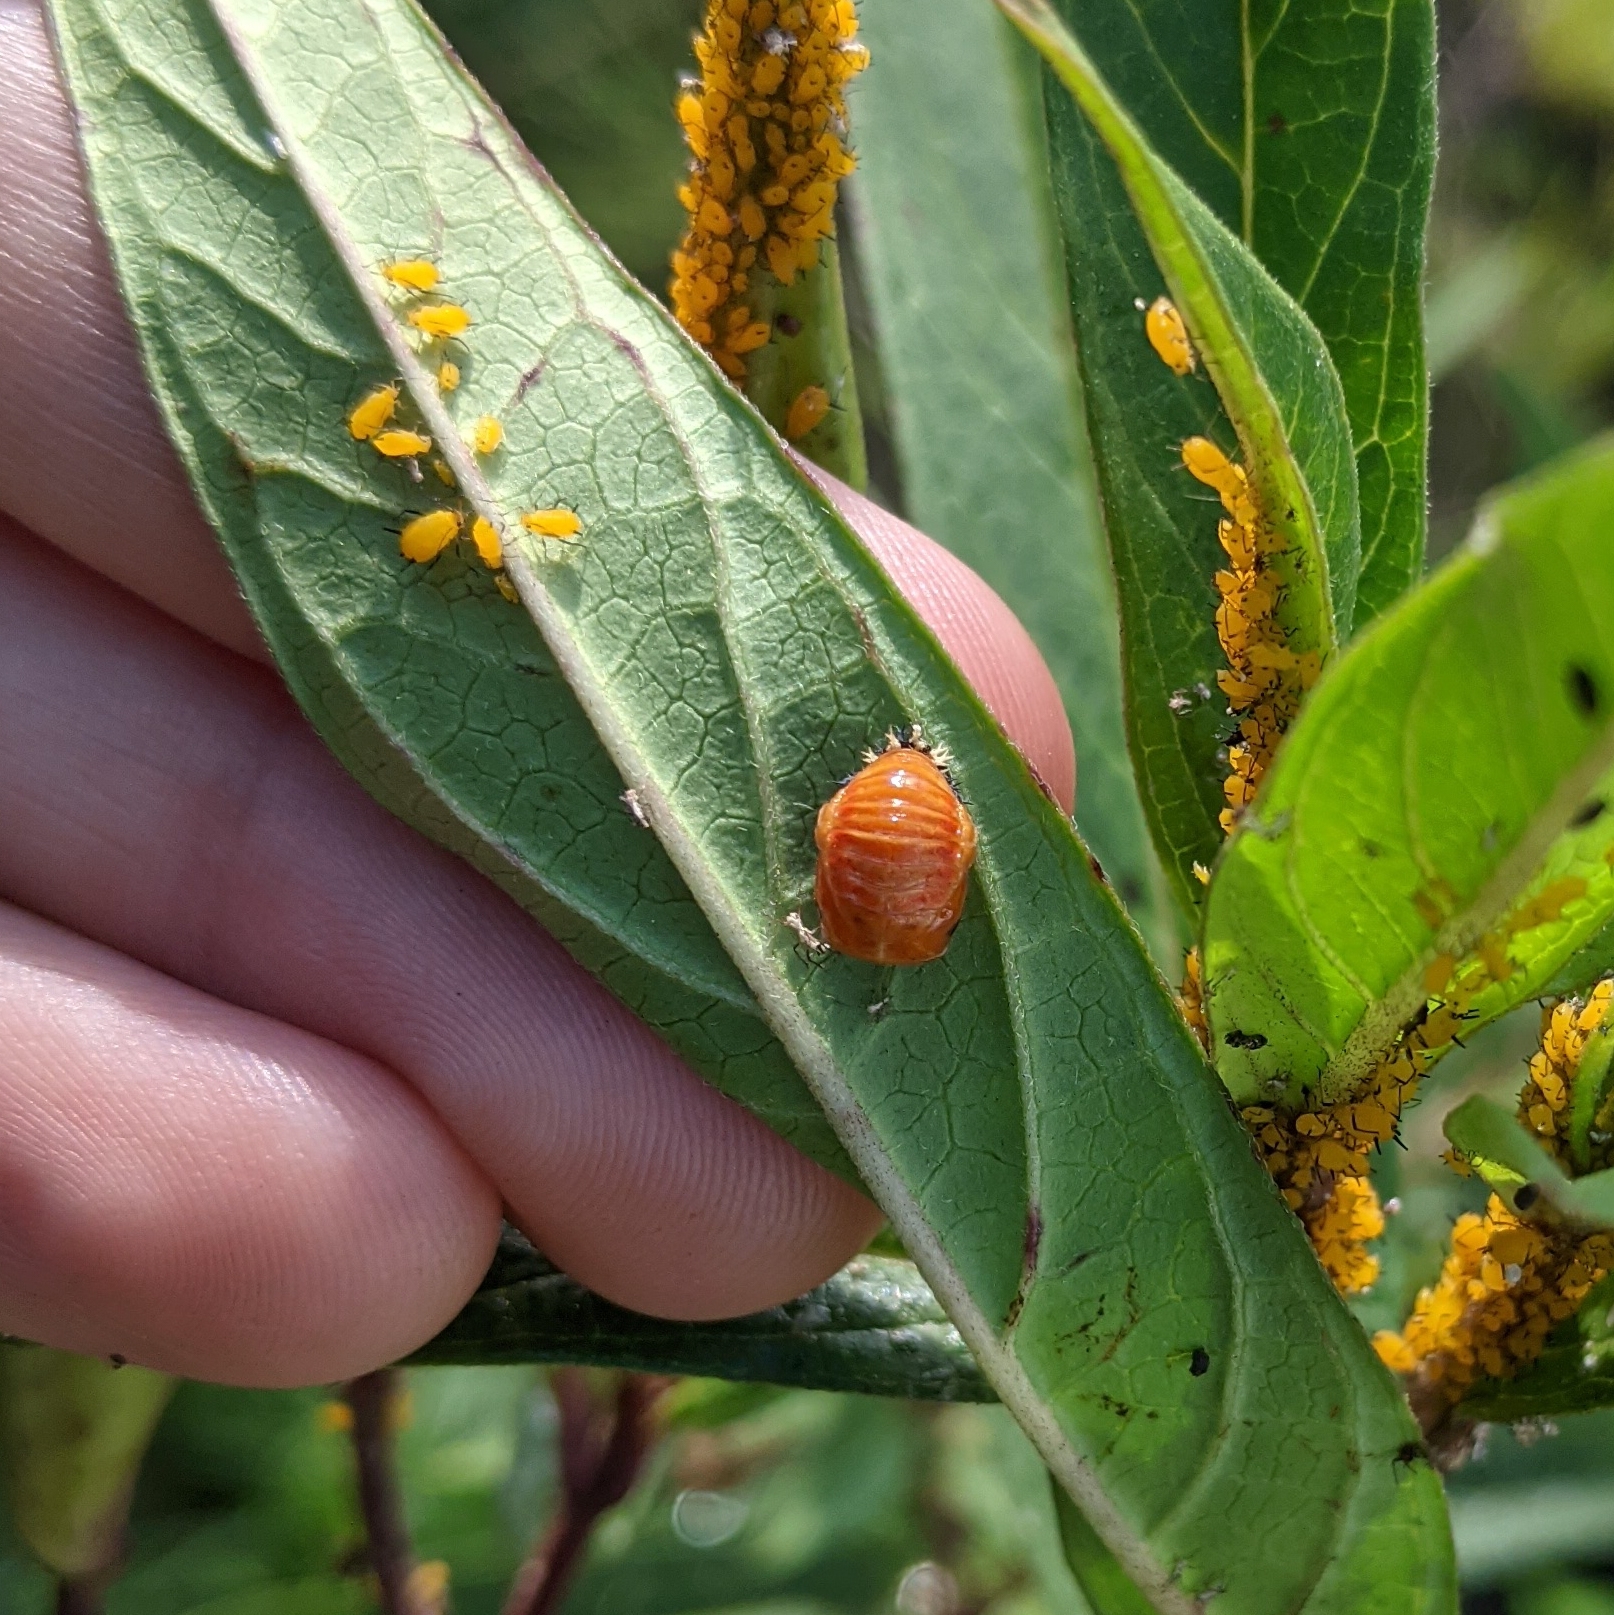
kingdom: Animalia
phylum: Arthropoda
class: Insecta
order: Coleoptera
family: Coccinellidae
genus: Harmonia
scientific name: Harmonia axyridis
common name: Harlequin ladybird
